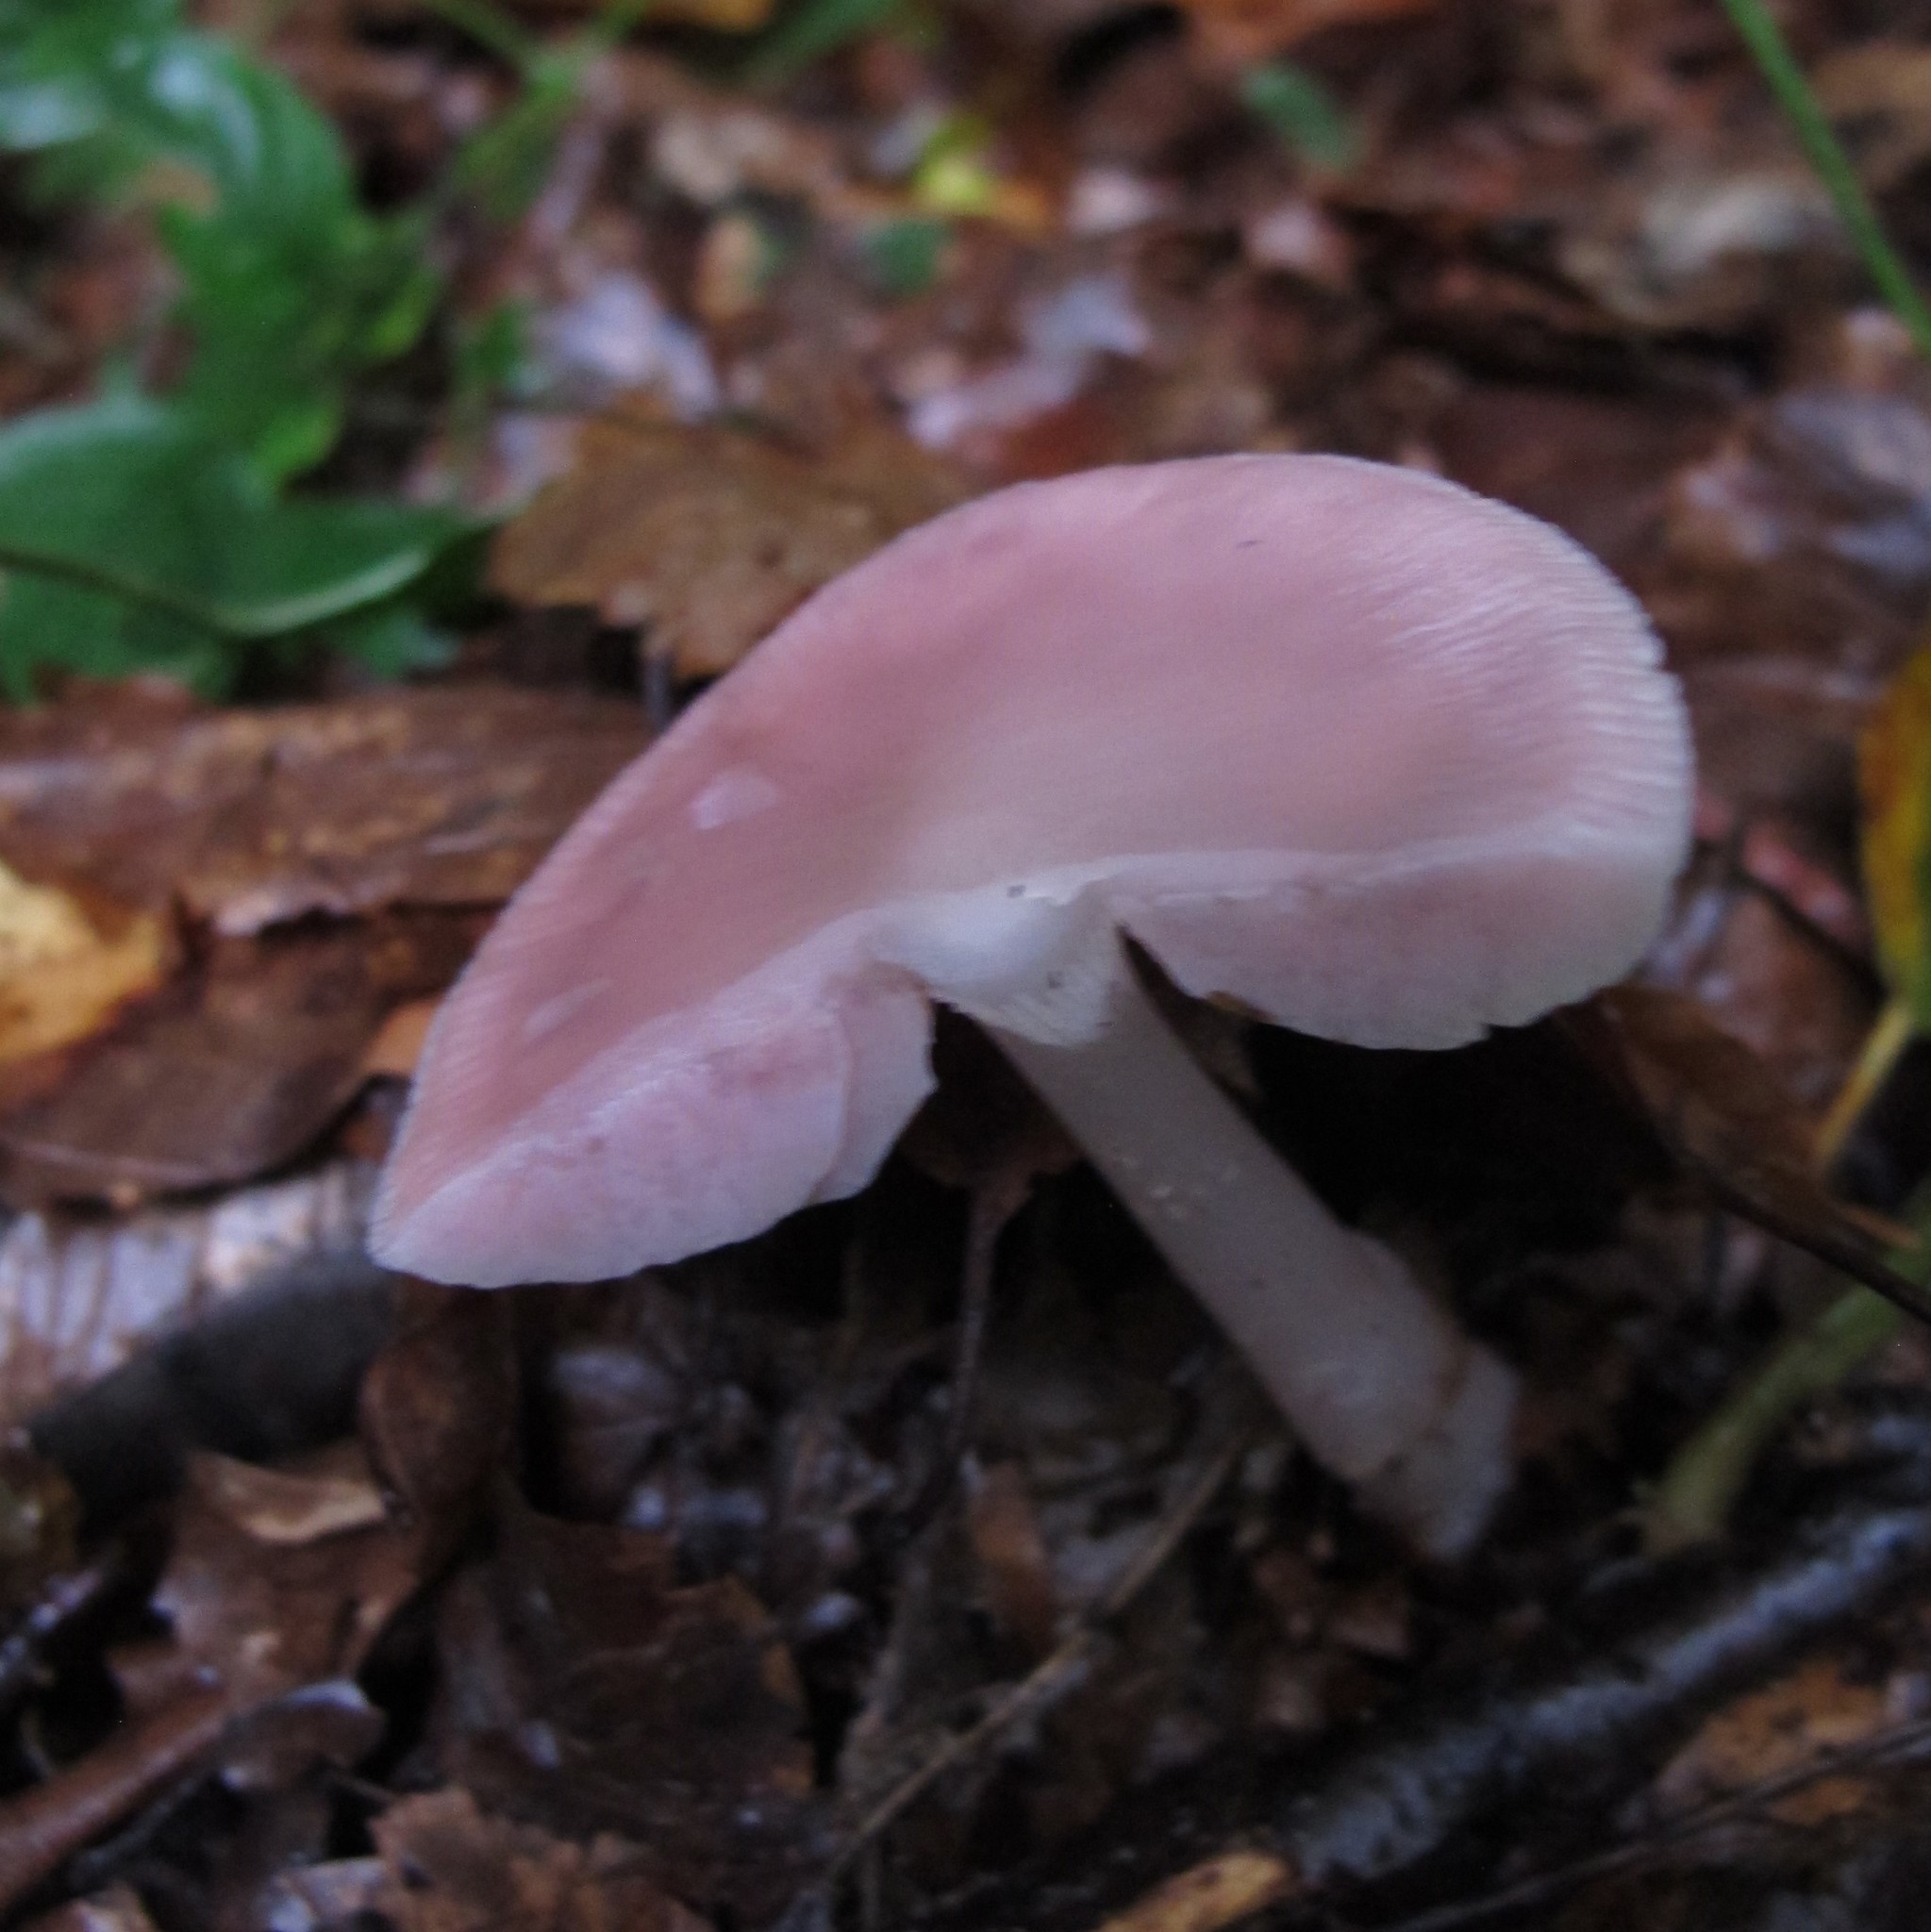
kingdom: Fungi
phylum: Basidiomycota
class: Agaricomycetes
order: Agaricales
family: Mycenaceae
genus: Mycena
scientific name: Mycena rosea
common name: Rosy bonnet
